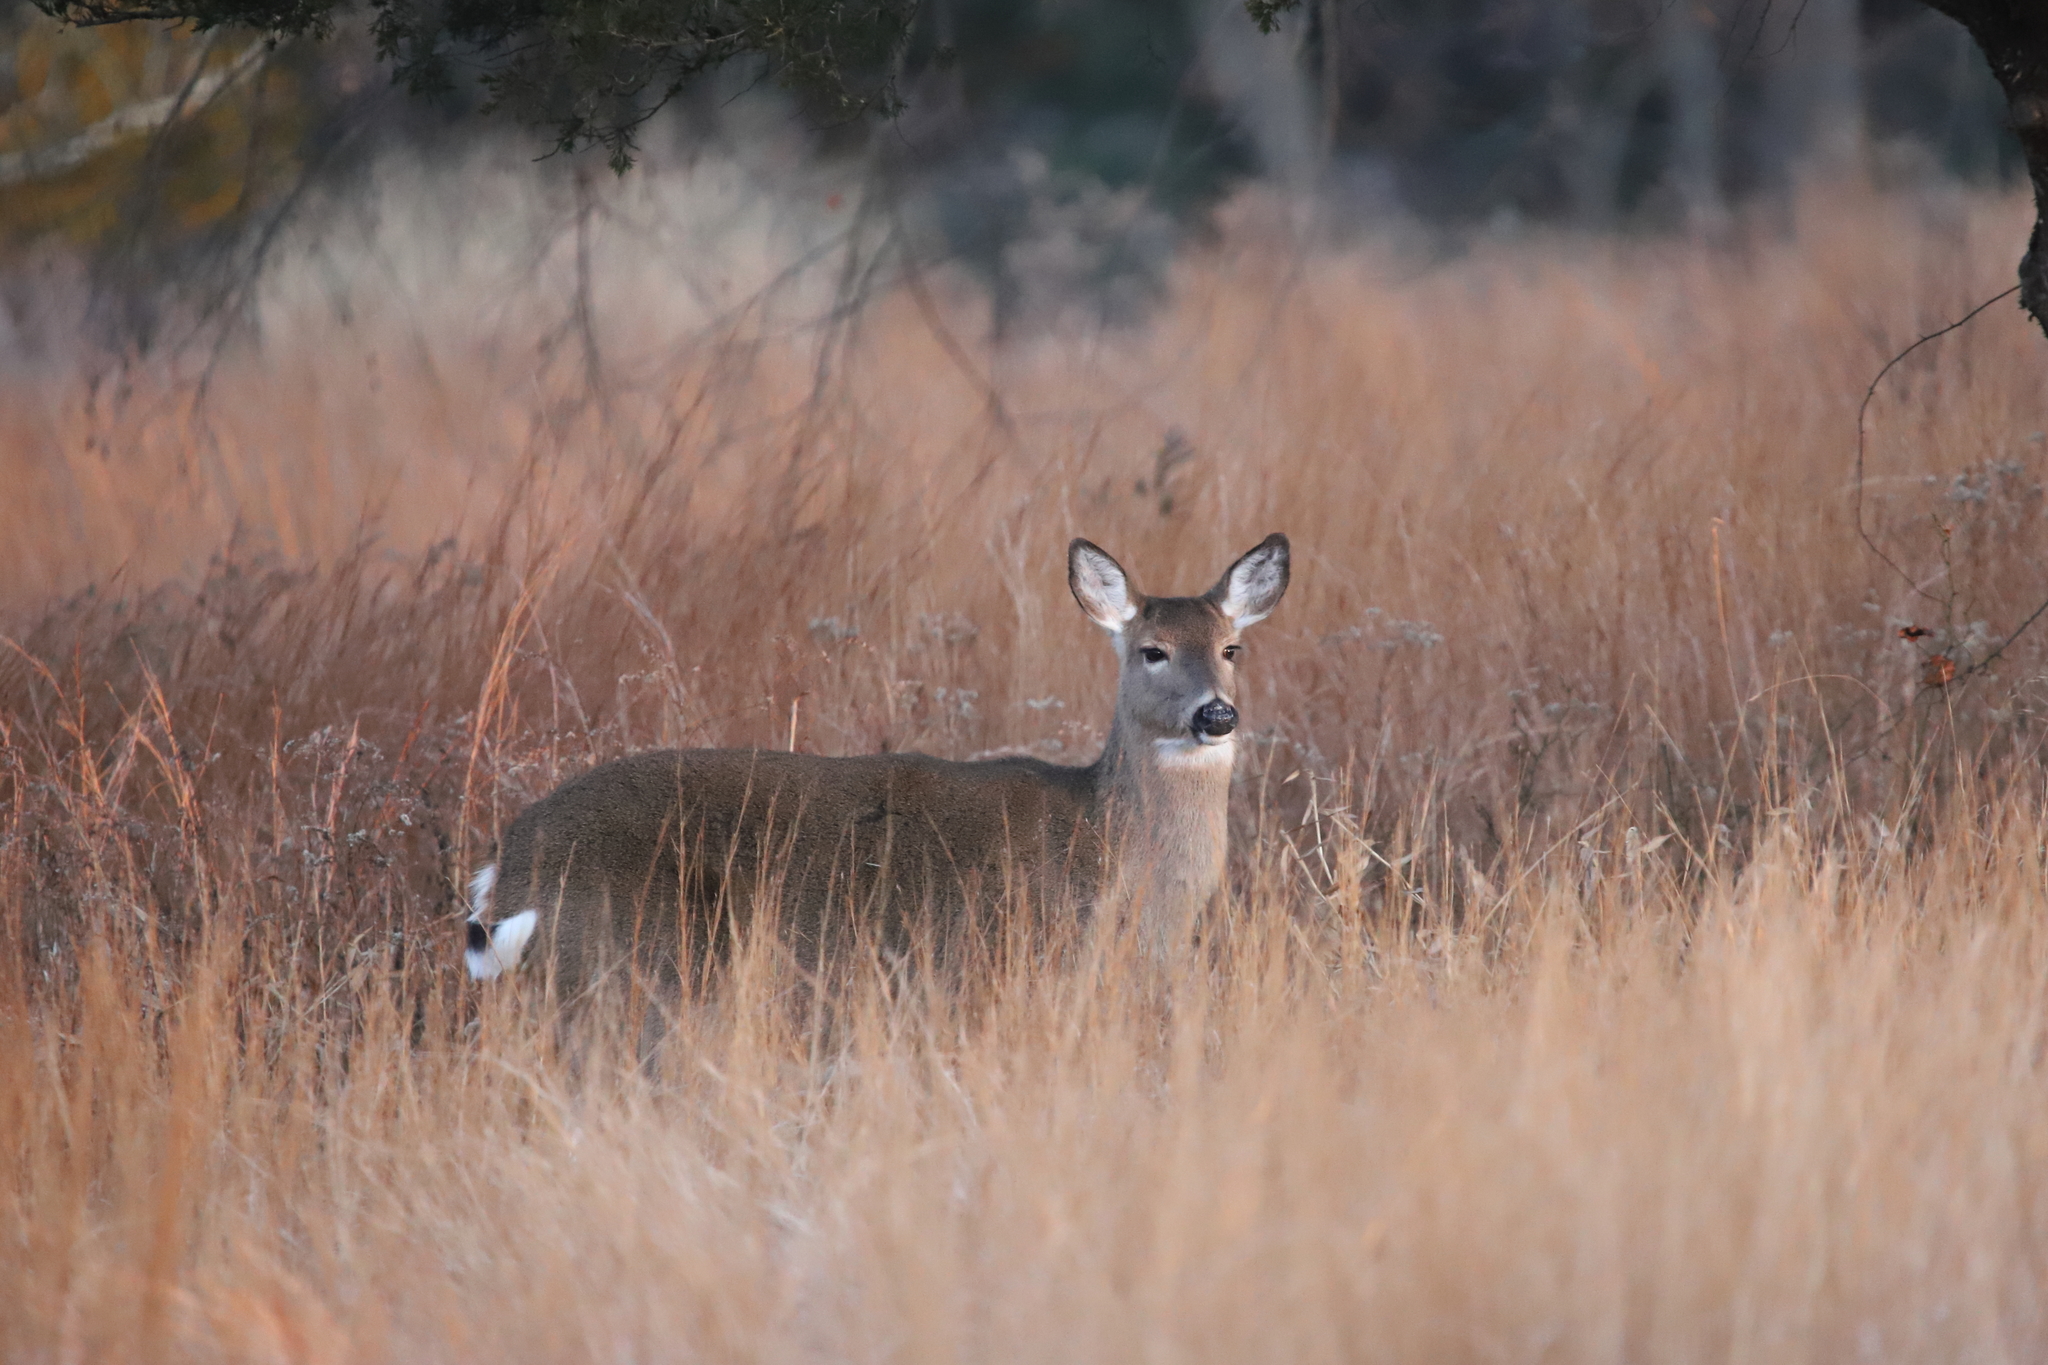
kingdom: Animalia
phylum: Chordata
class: Mammalia
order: Artiodactyla
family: Cervidae
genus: Odocoileus
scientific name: Odocoileus virginianus
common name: White-tailed deer
